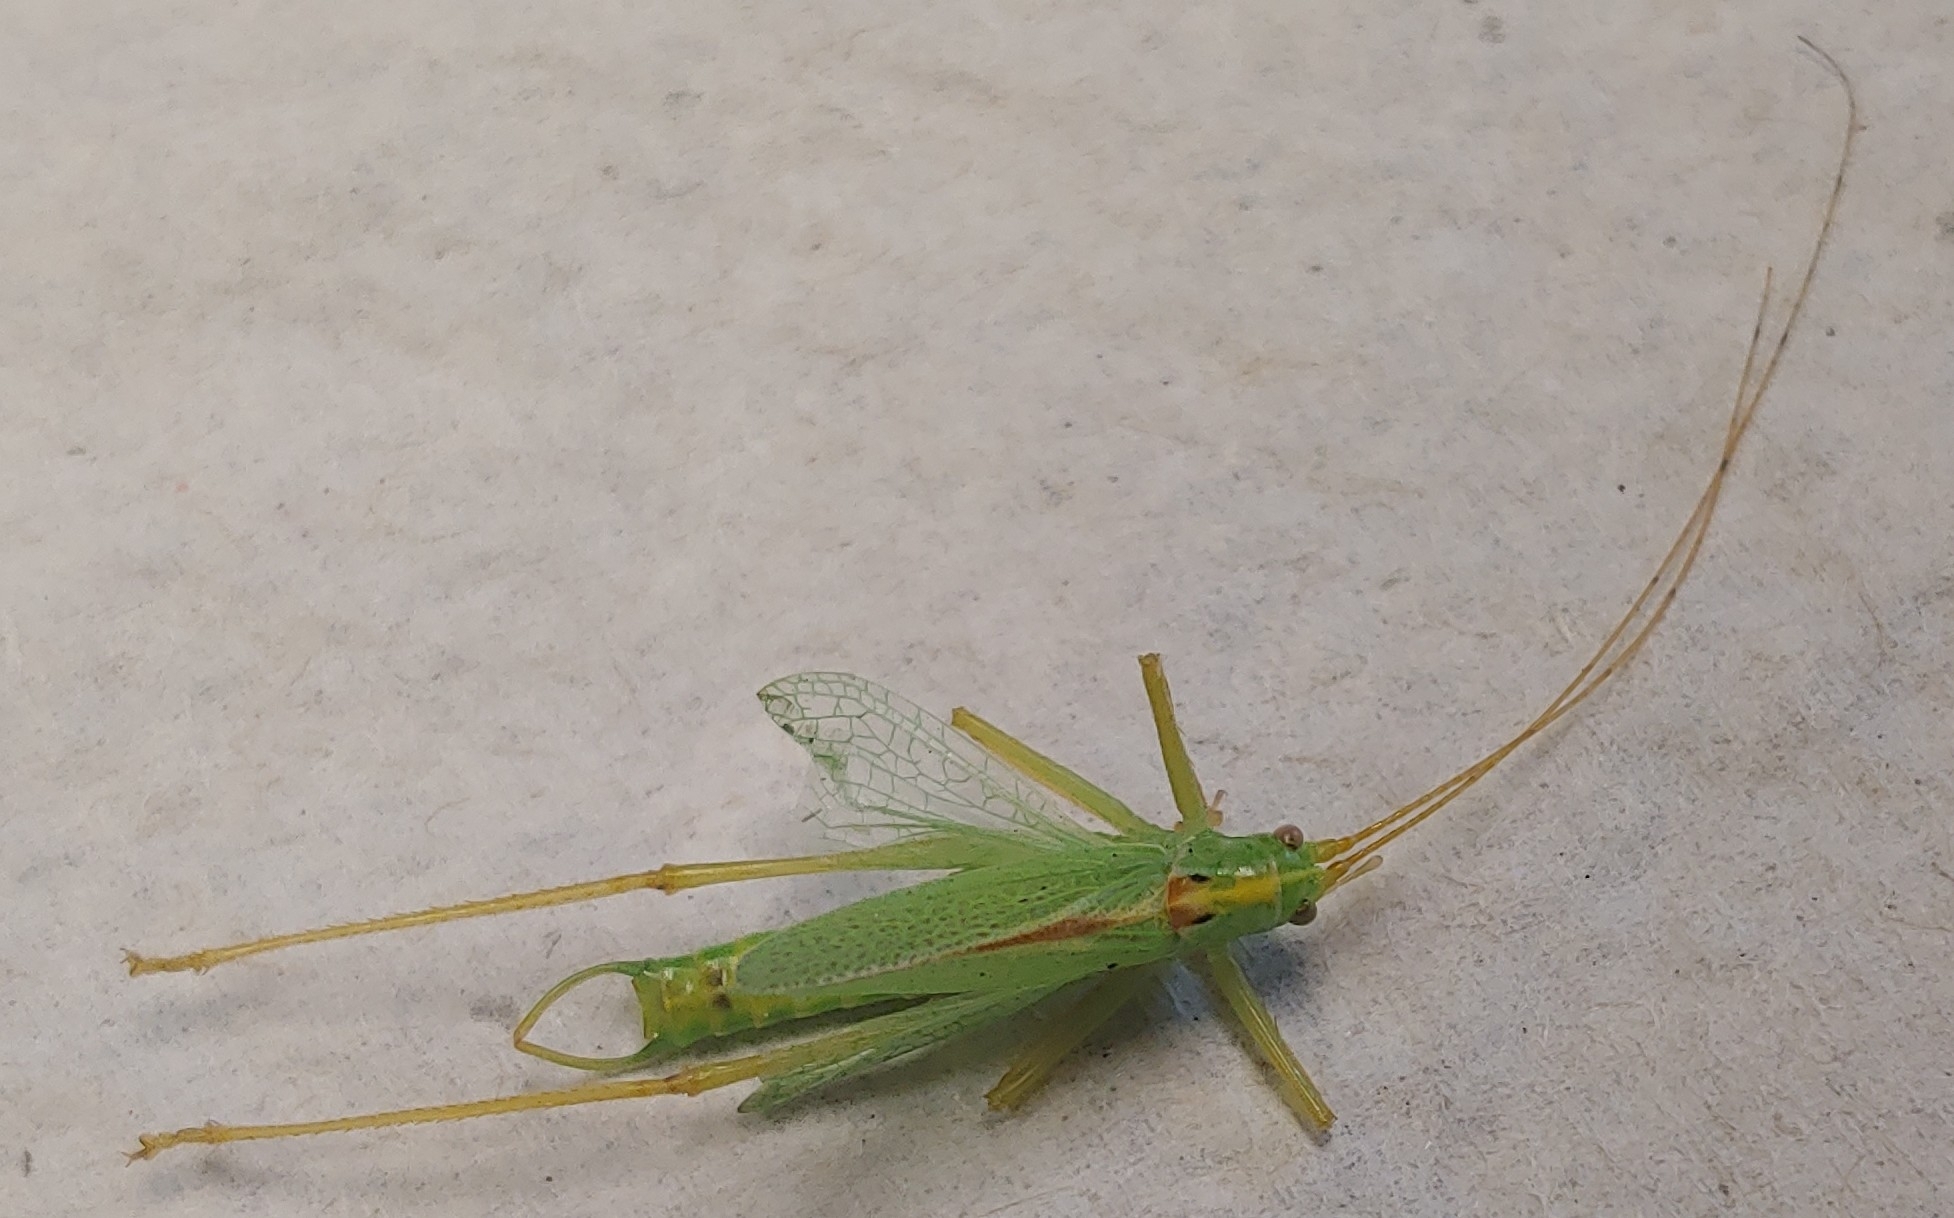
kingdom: Animalia
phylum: Arthropoda
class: Insecta
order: Orthoptera
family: Tettigoniidae
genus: Meconema
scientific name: Meconema thalassinum
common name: Oak bush-cricket
